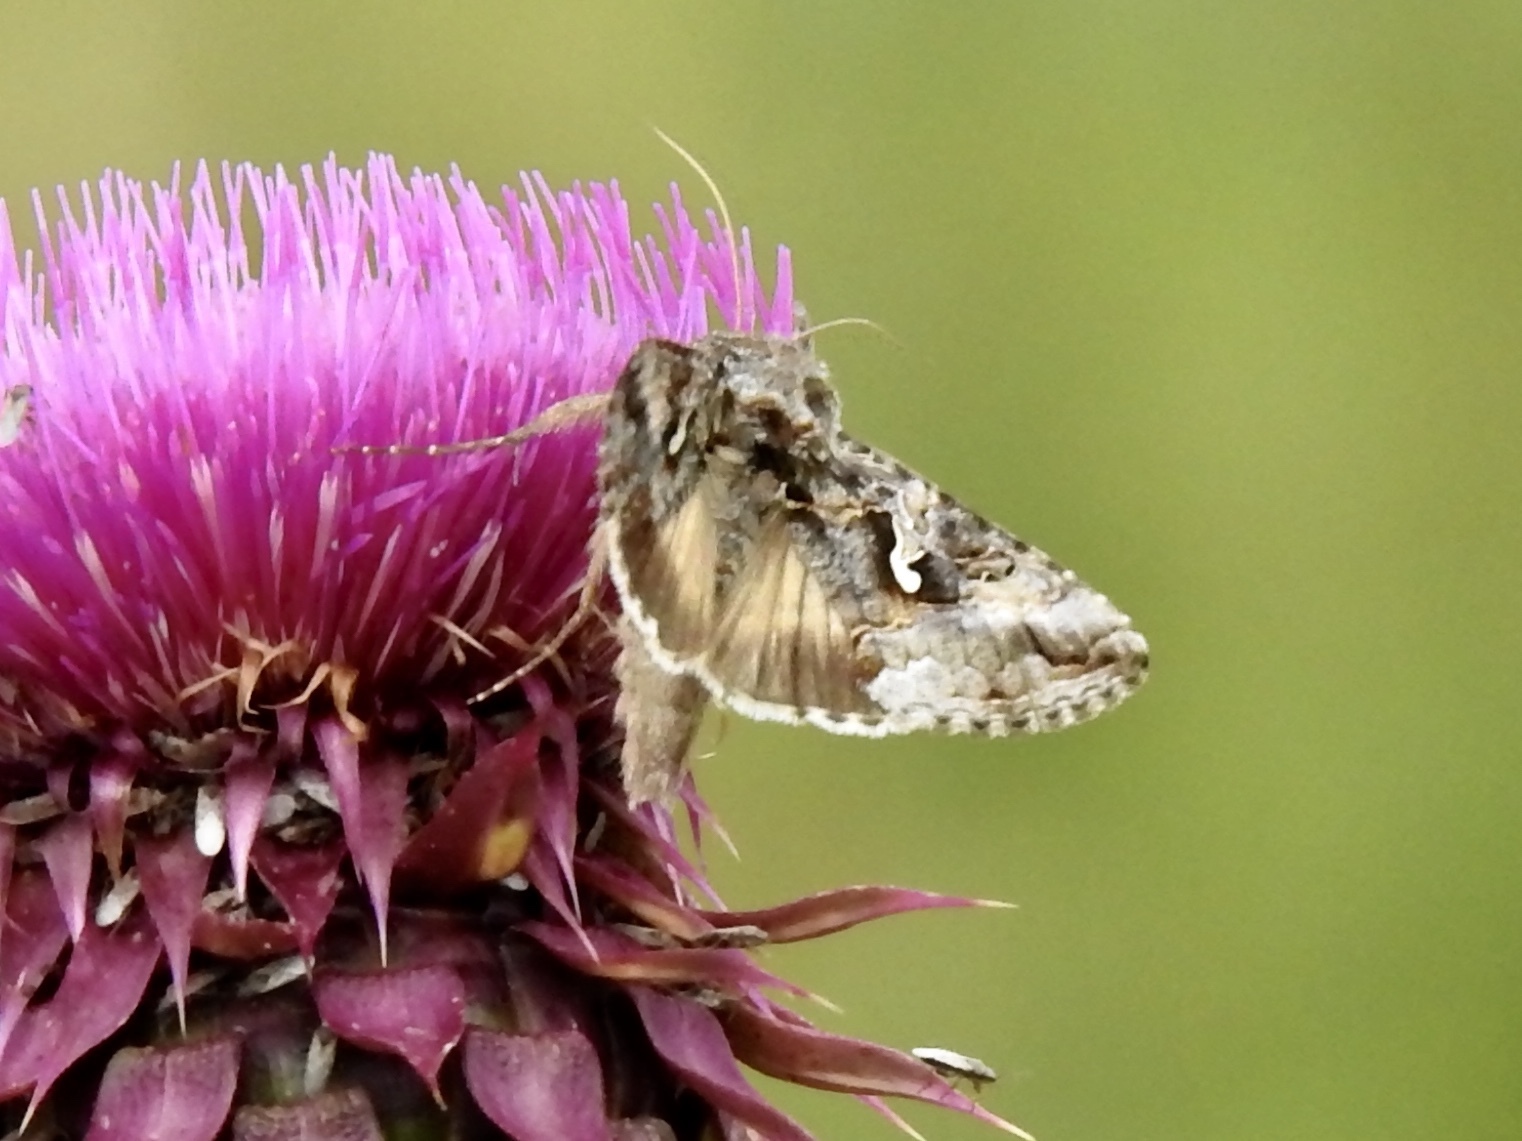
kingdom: Animalia
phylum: Arthropoda
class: Insecta
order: Lepidoptera
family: Noctuidae
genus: Autographa
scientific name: Autographa californica
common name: Alfalfa looper
